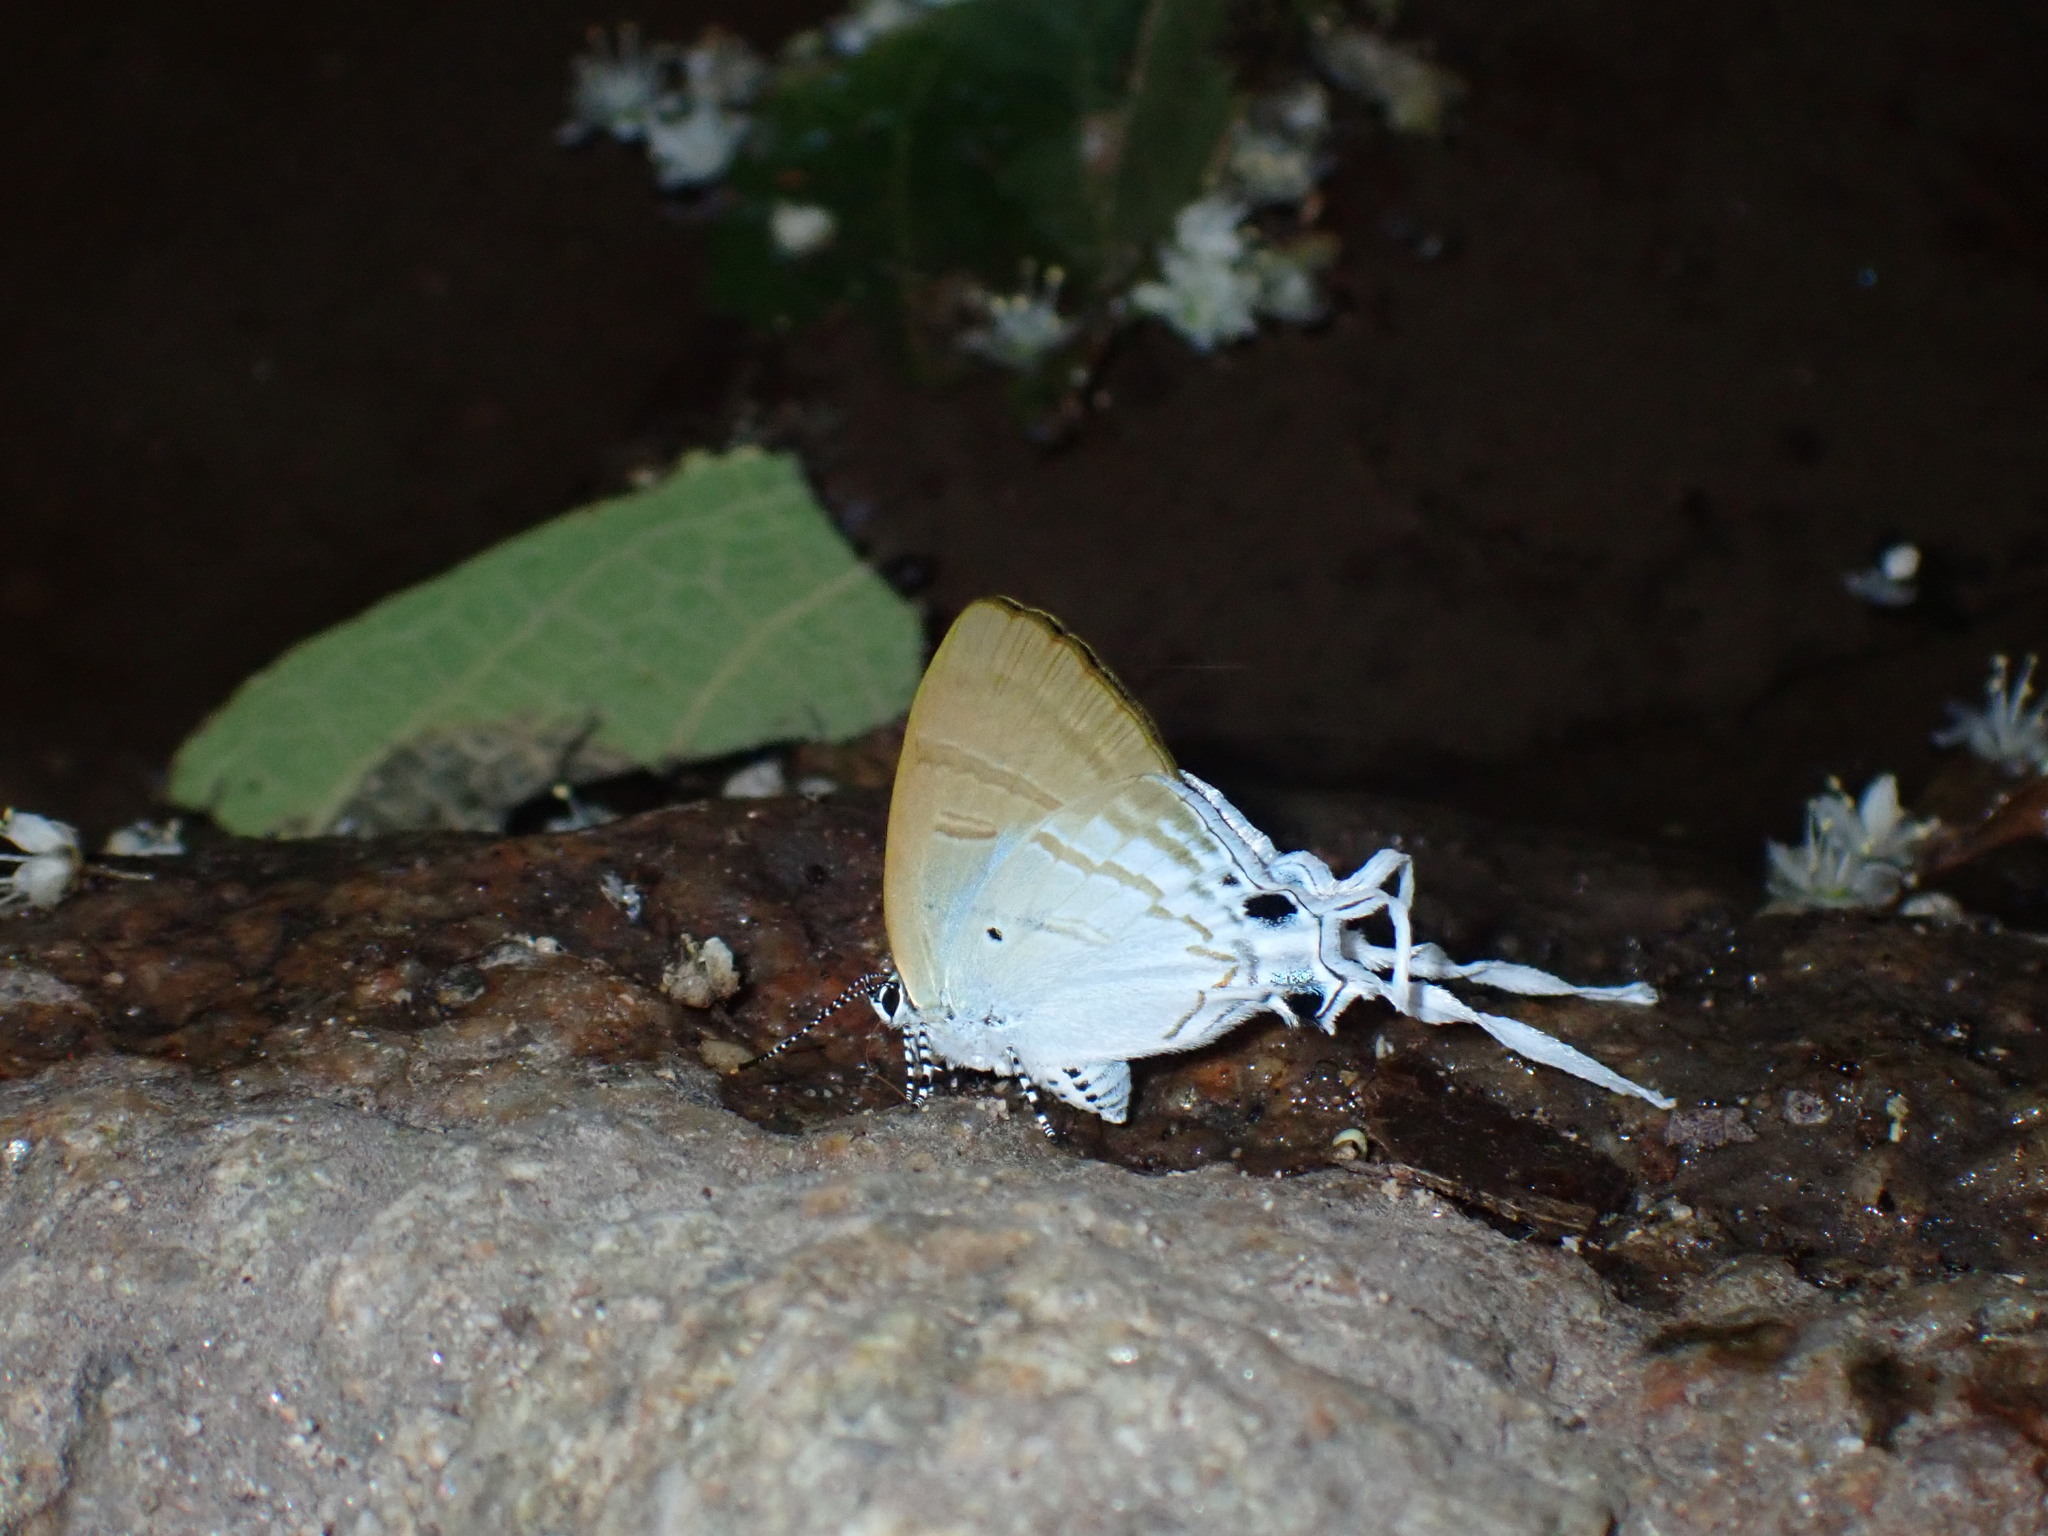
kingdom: Animalia
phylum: Arthropoda
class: Insecta
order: Lepidoptera
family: Lycaenidae
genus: Zeltus
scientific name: Zeltus amasa
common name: Fluffy tit
